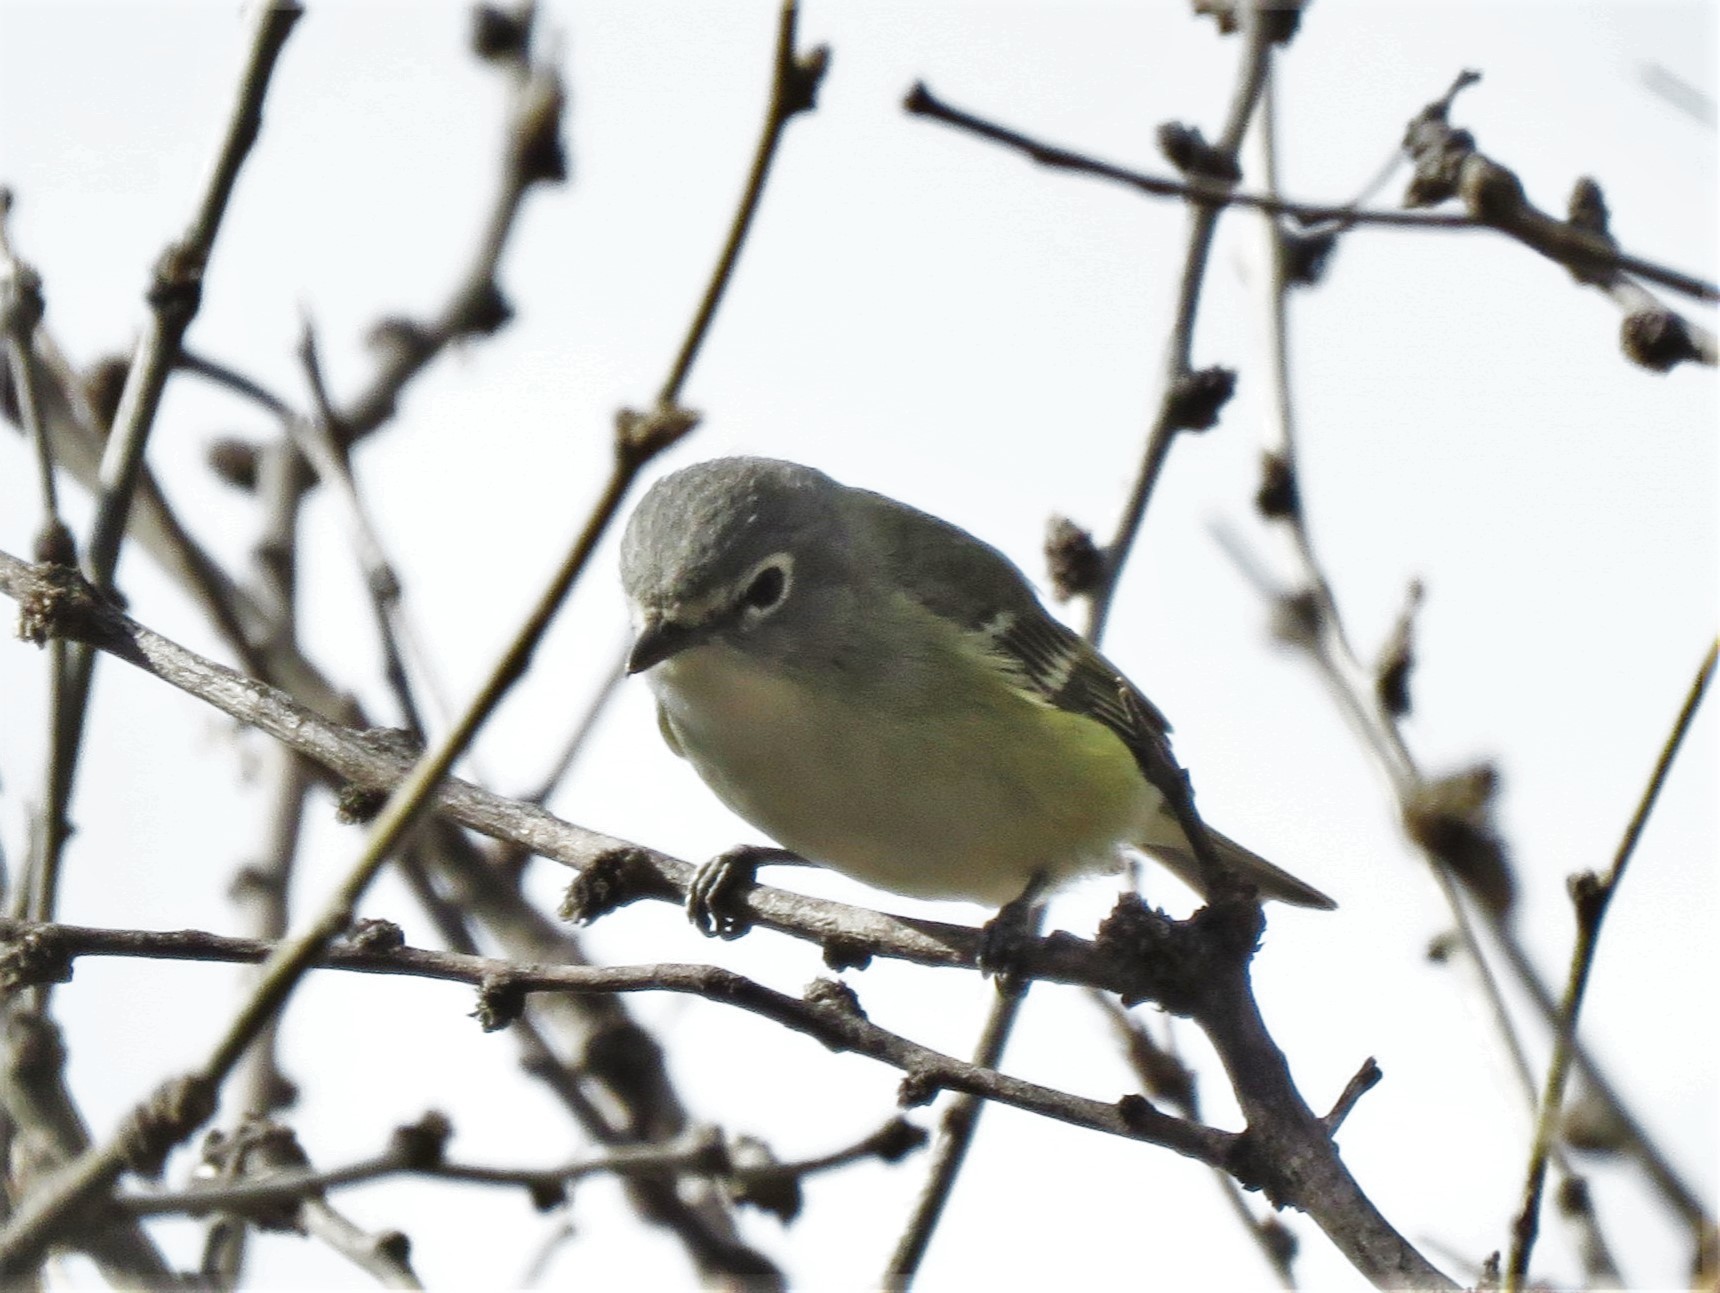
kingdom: Animalia
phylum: Chordata
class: Aves
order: Passeriformes
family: Vireonidae
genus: Vireo
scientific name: Vireo cassinii
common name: Cassin's vireo
